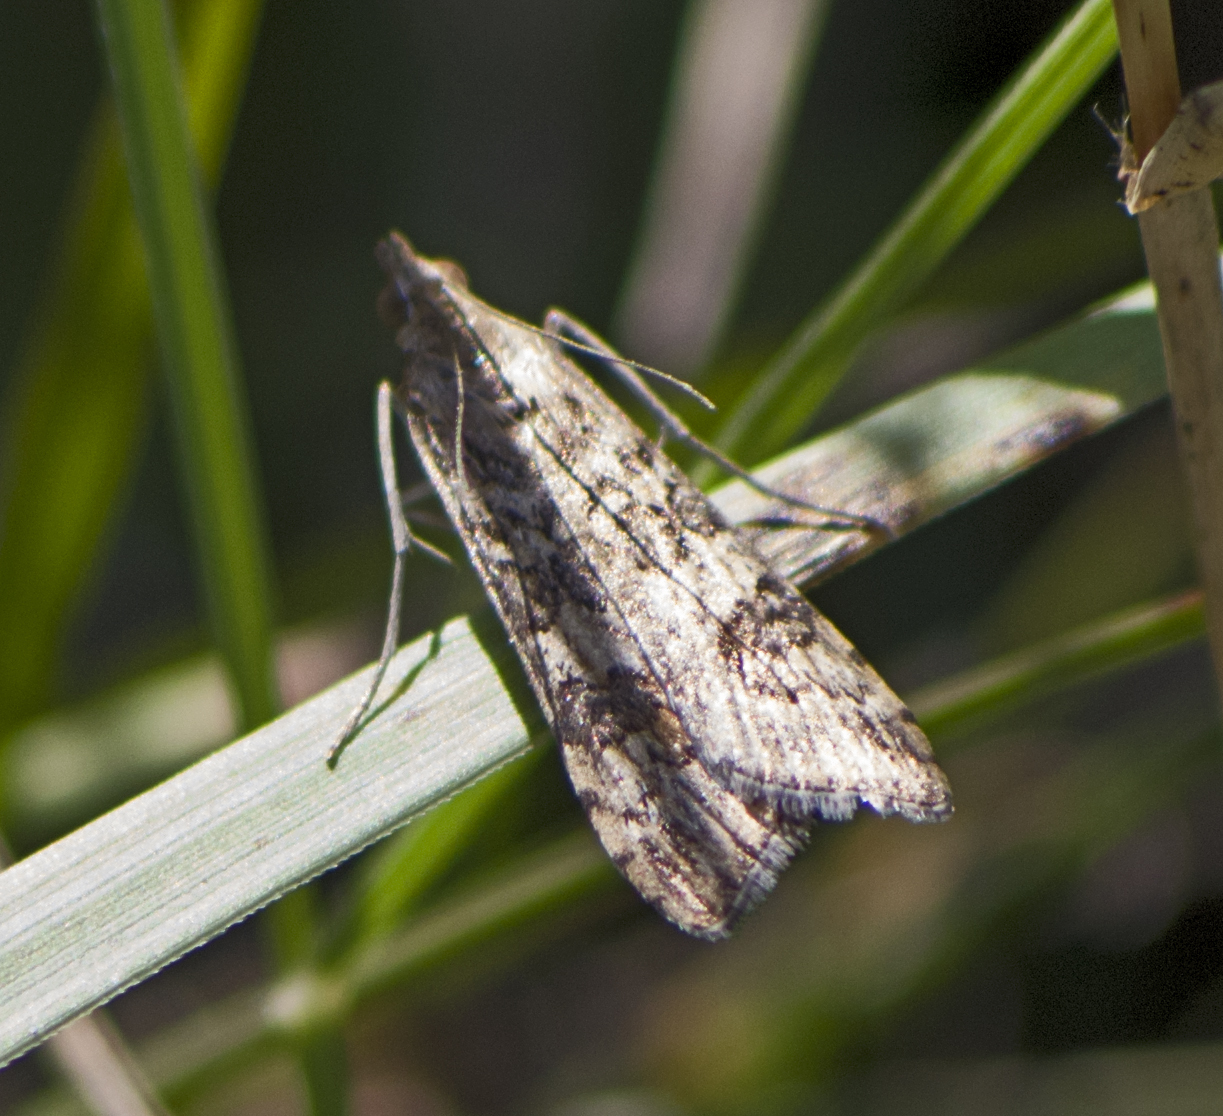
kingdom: Animalia
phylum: Arthropoda
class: Insecta
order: Lepidoptera
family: Crambidae
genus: Nomophila
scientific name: Nomophila noctuella
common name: Rush veneer
